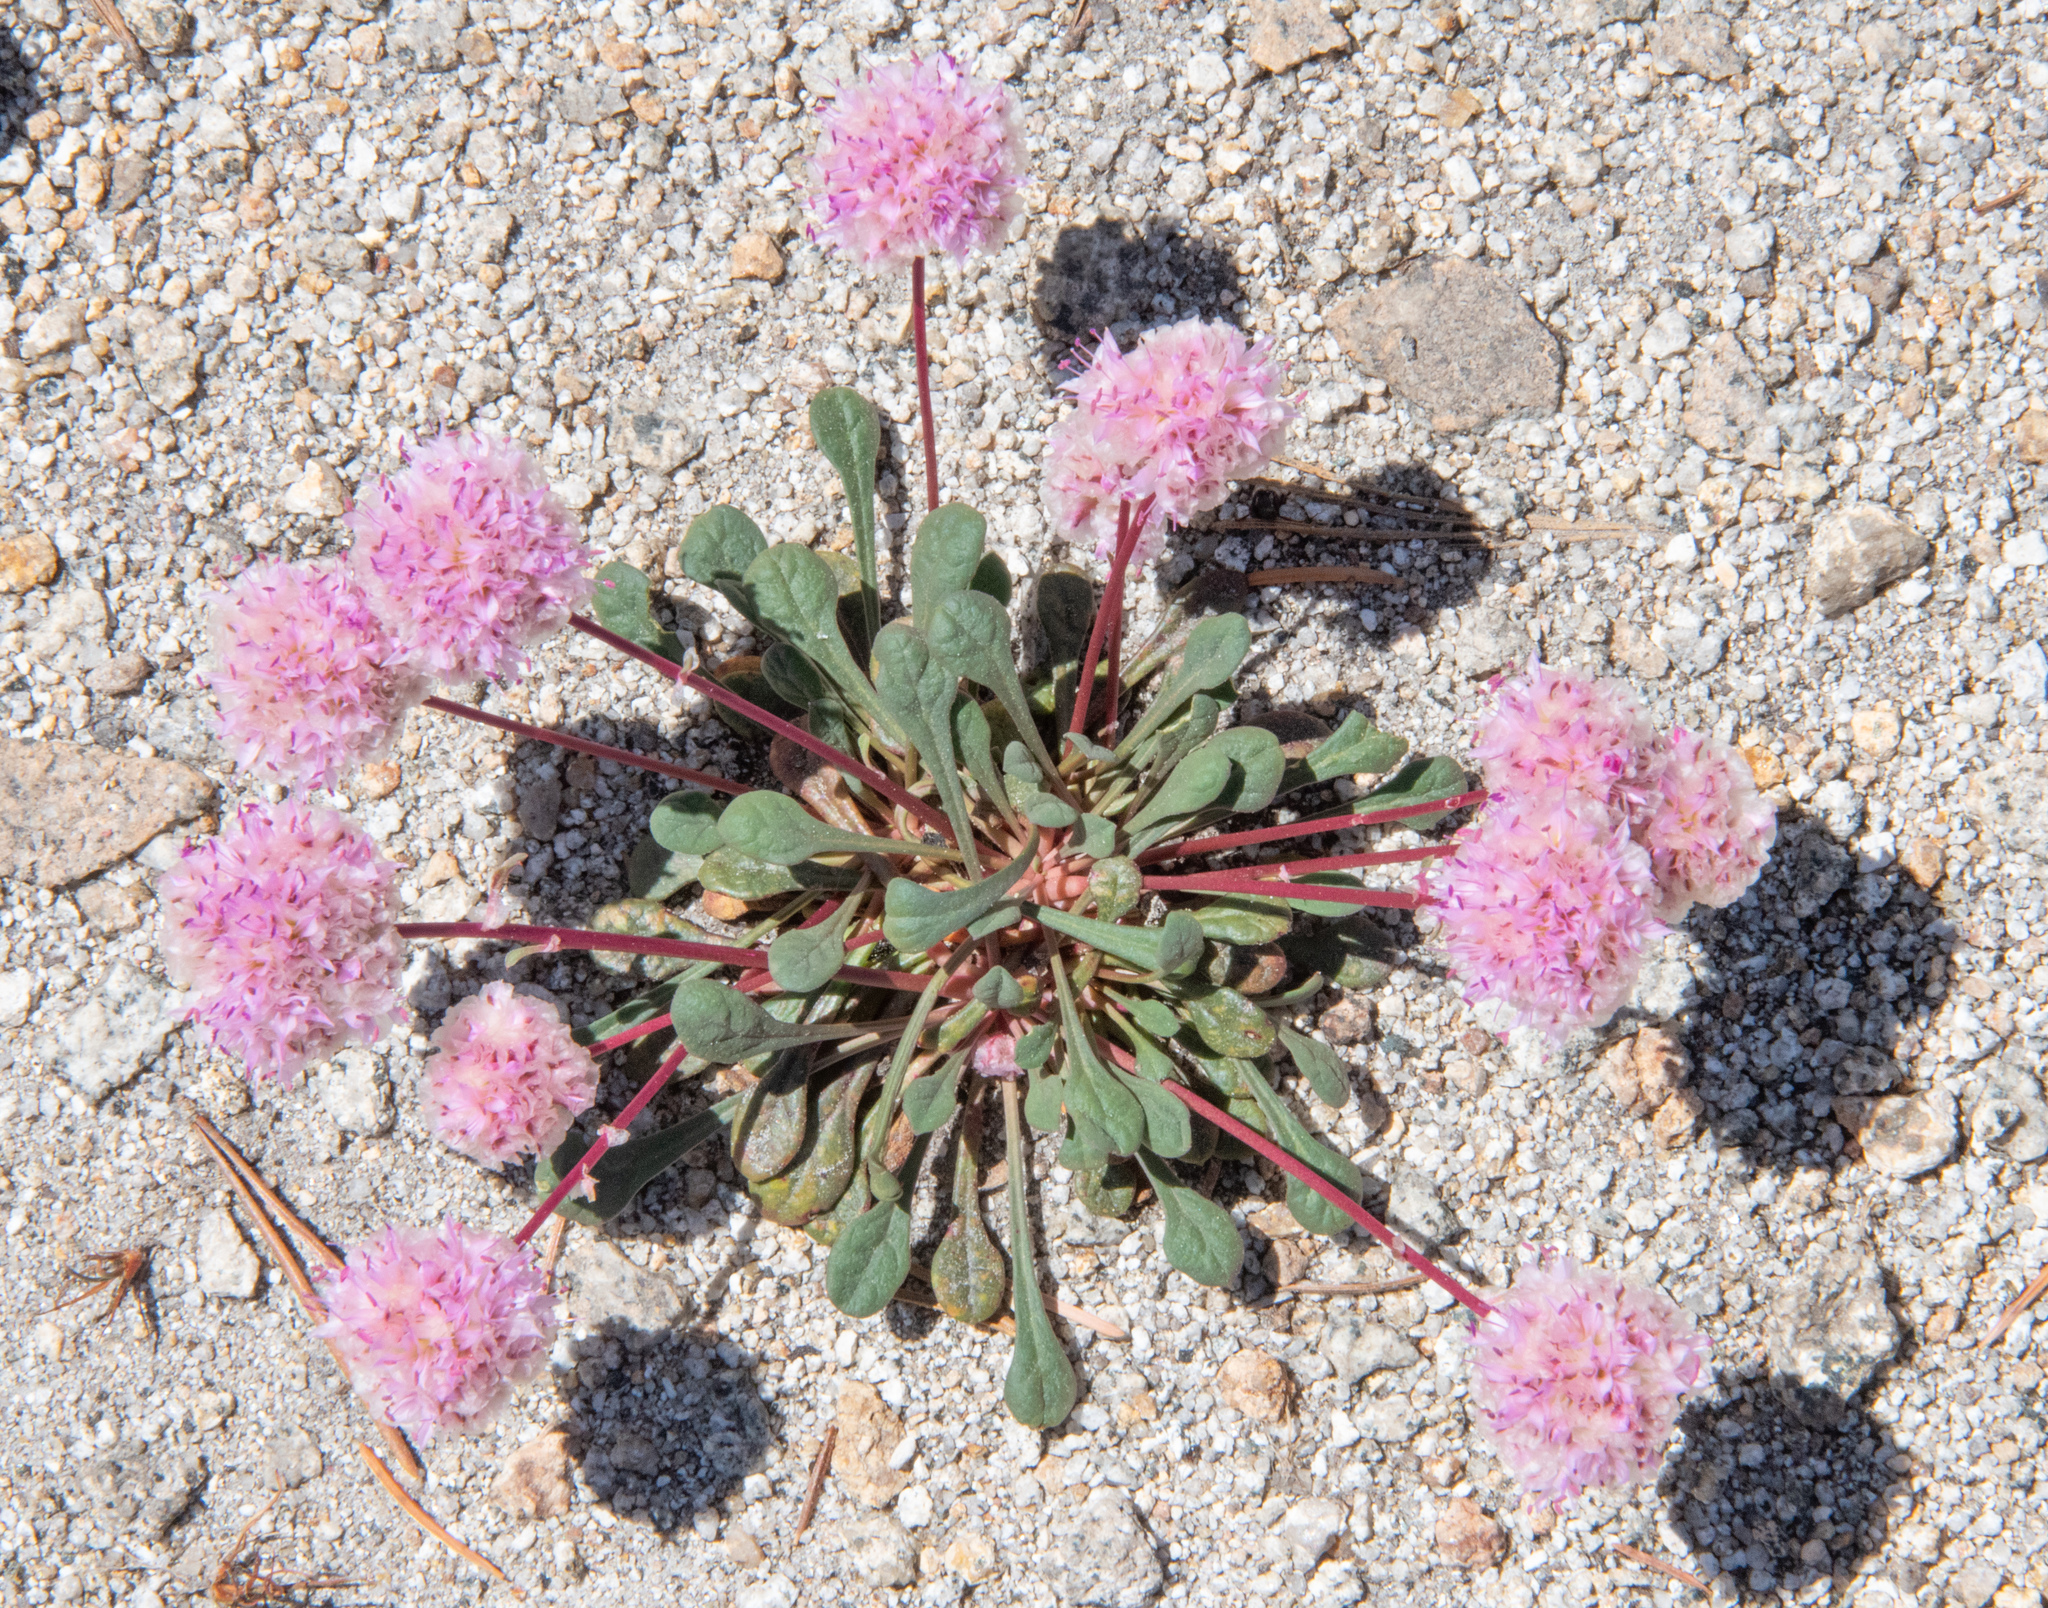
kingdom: Plantae
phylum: Tracheophyta
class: Magnoliopsida
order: Caryophyllales
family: Montiaceae
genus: Calyptridium
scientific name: Calyptridium monospermum
